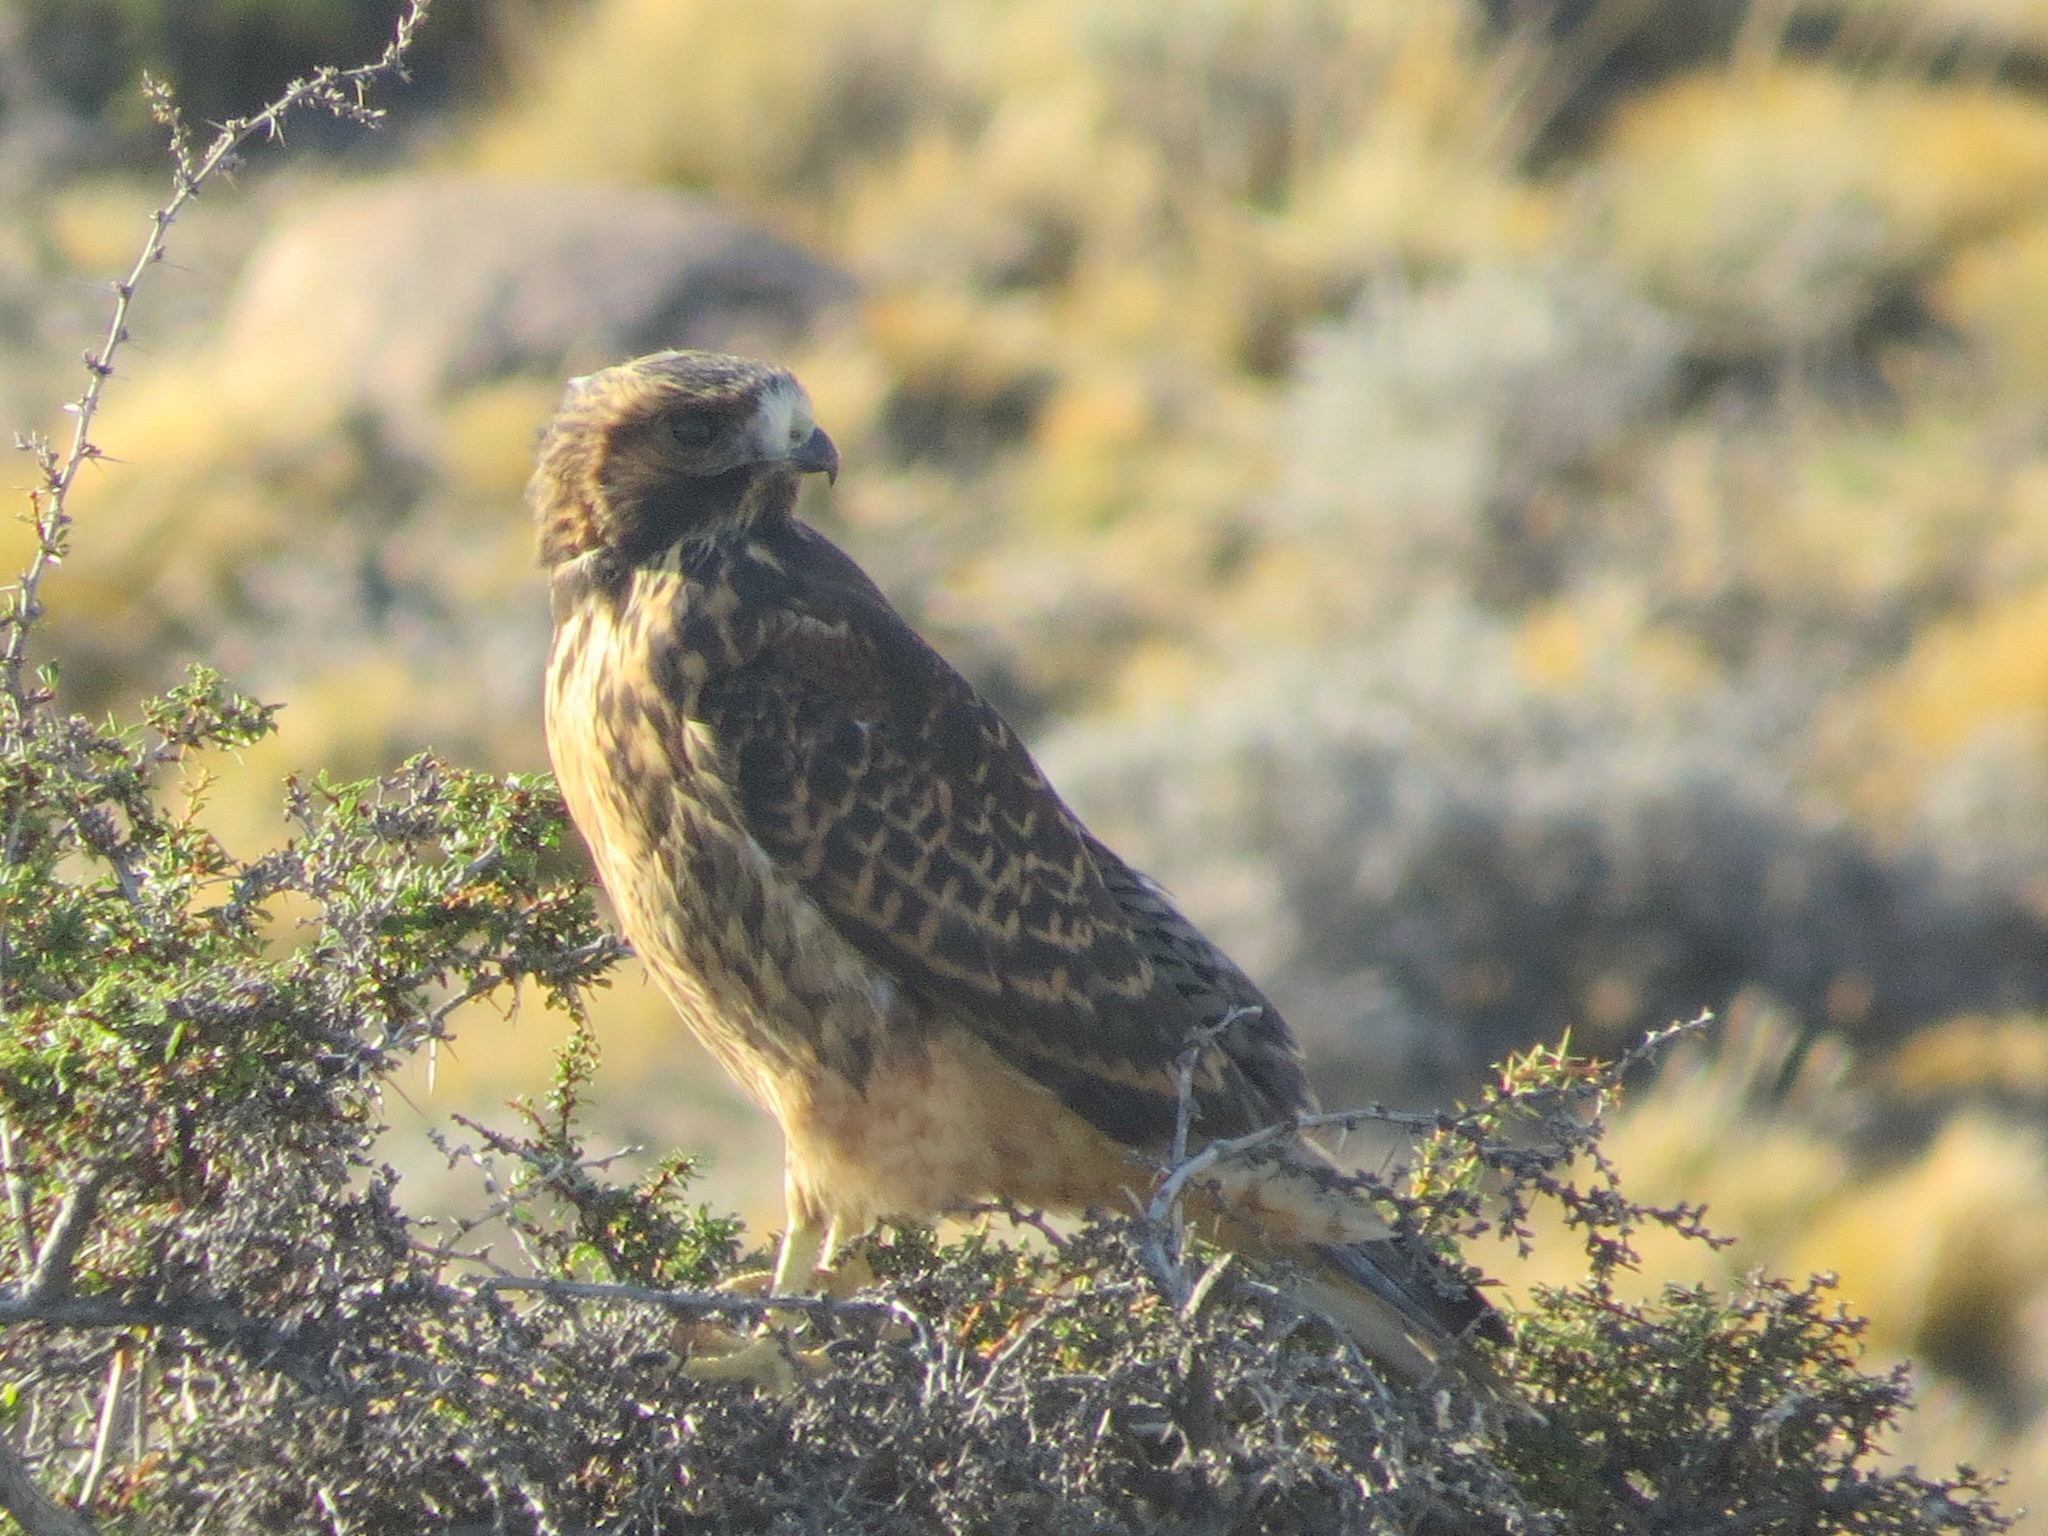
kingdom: Animalia
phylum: Chordata
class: Aves
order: Accipitriformes
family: Accipitridae
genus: Buteo
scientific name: Buteo polyosoma
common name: Variable hawk
